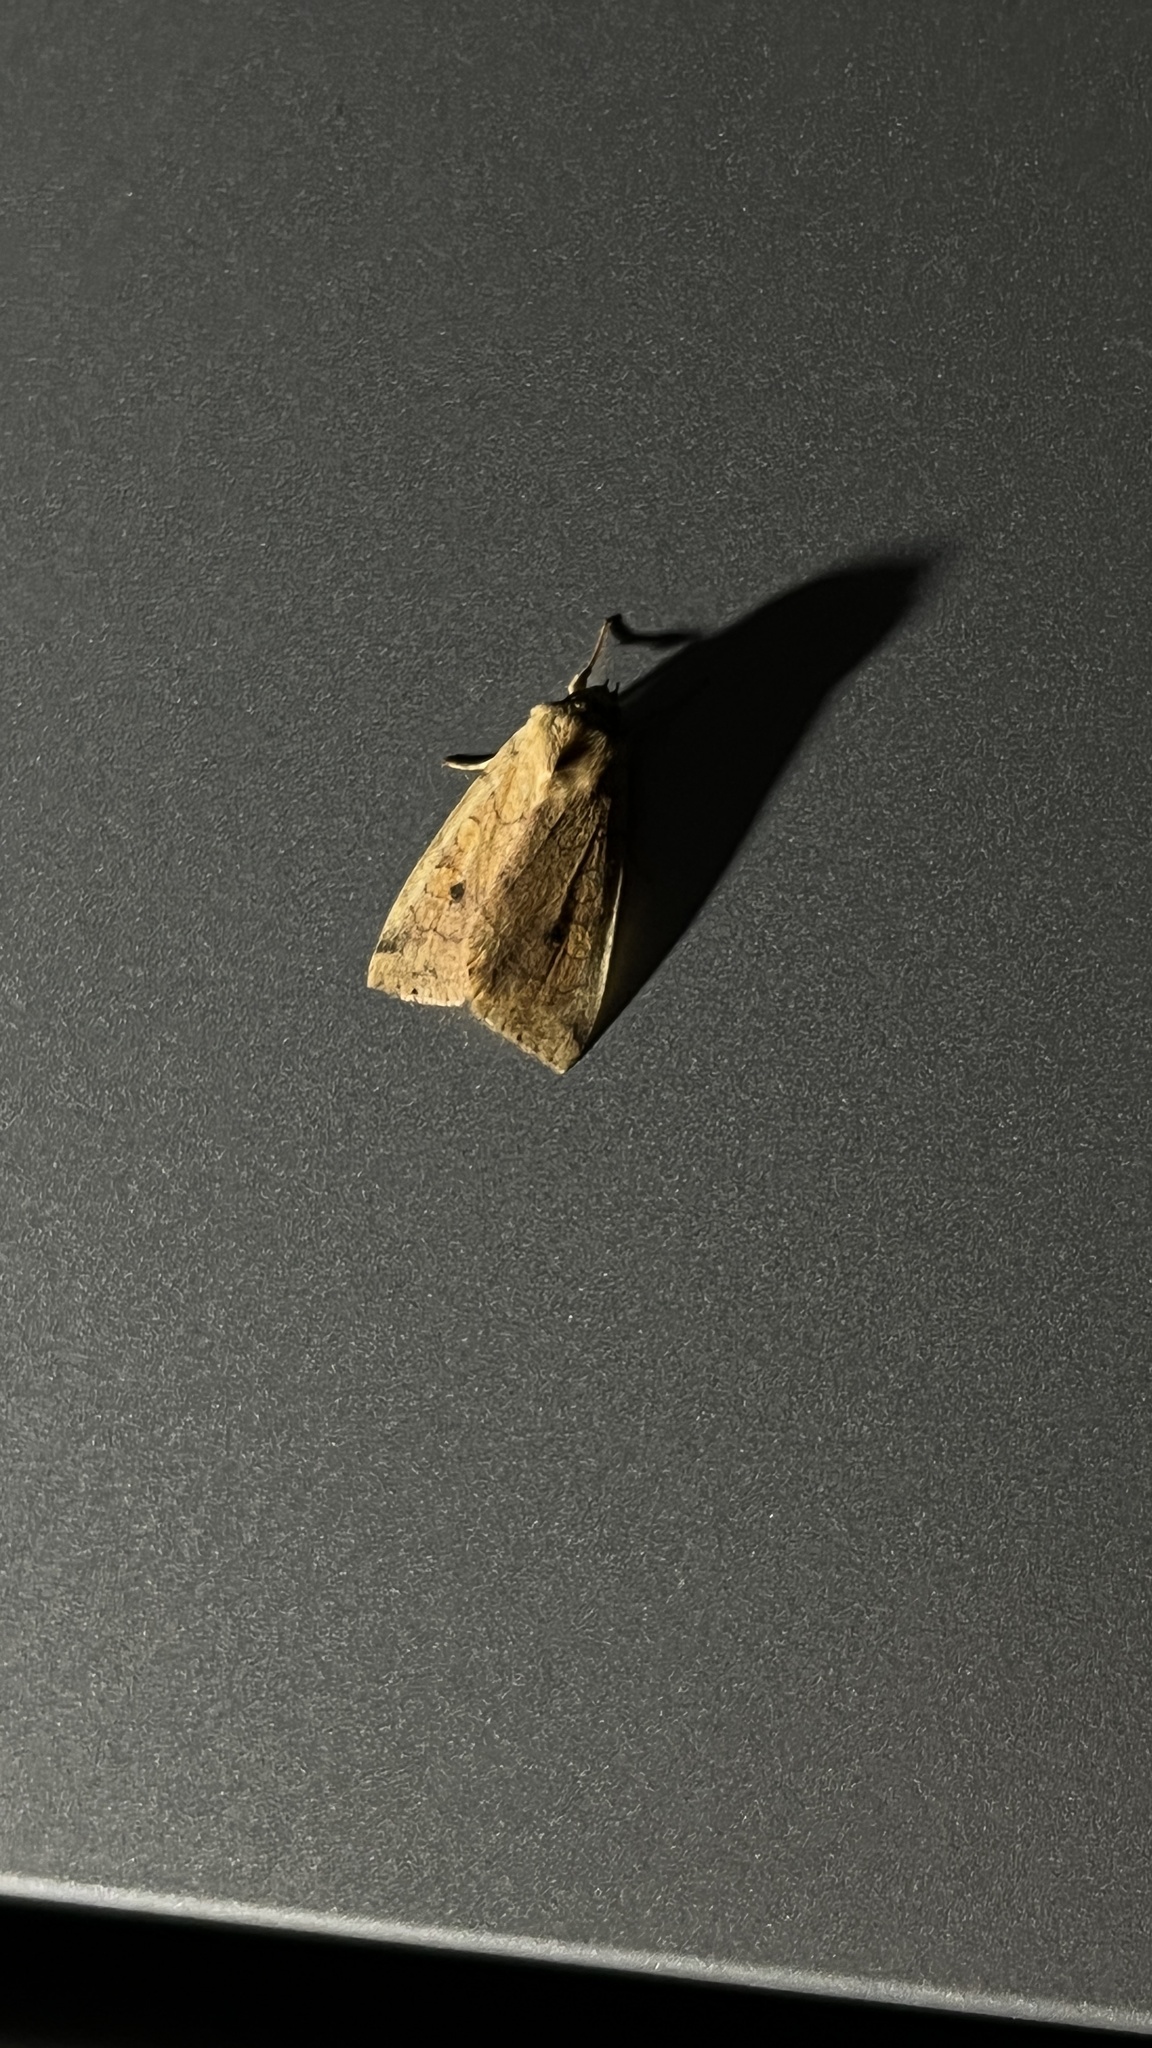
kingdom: Animalia
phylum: Arthropoda
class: Insecta
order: Lepidoptera
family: Noctuidae
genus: Enargia
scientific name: Enargia paleacea
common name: Angle-striped sallow
